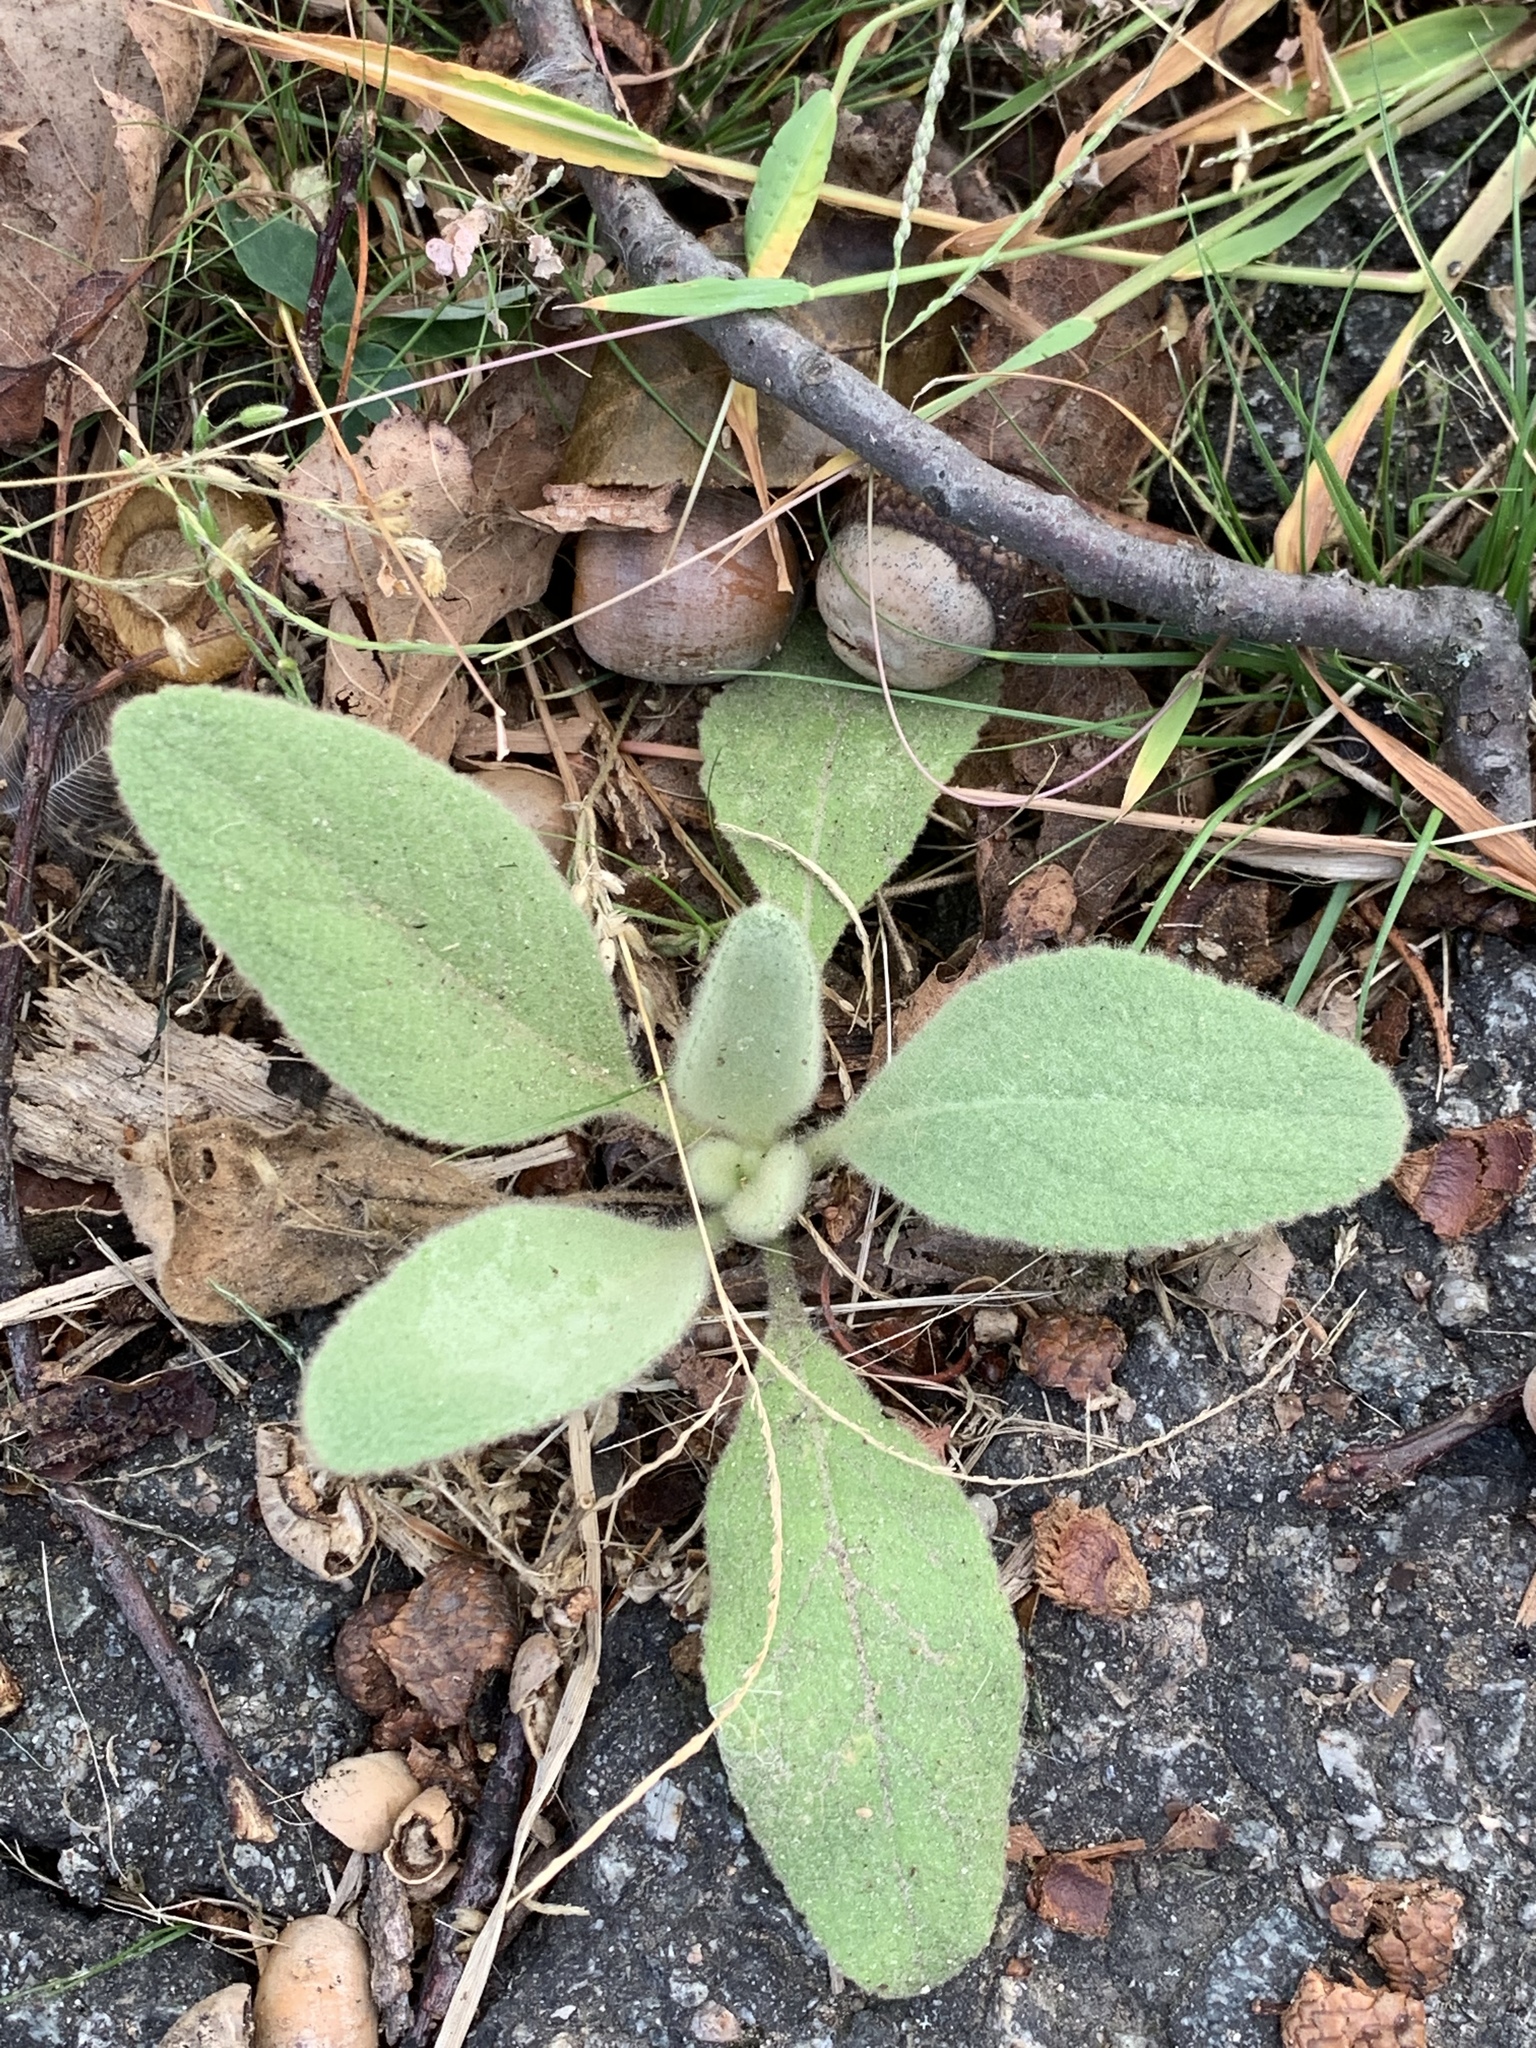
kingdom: Plantae
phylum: Tracheophyta
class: Magnoliopsida
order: Lamiales
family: Scrophulariaceae
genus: Verbascum
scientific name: Verbascum thapsus
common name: Common mullein
